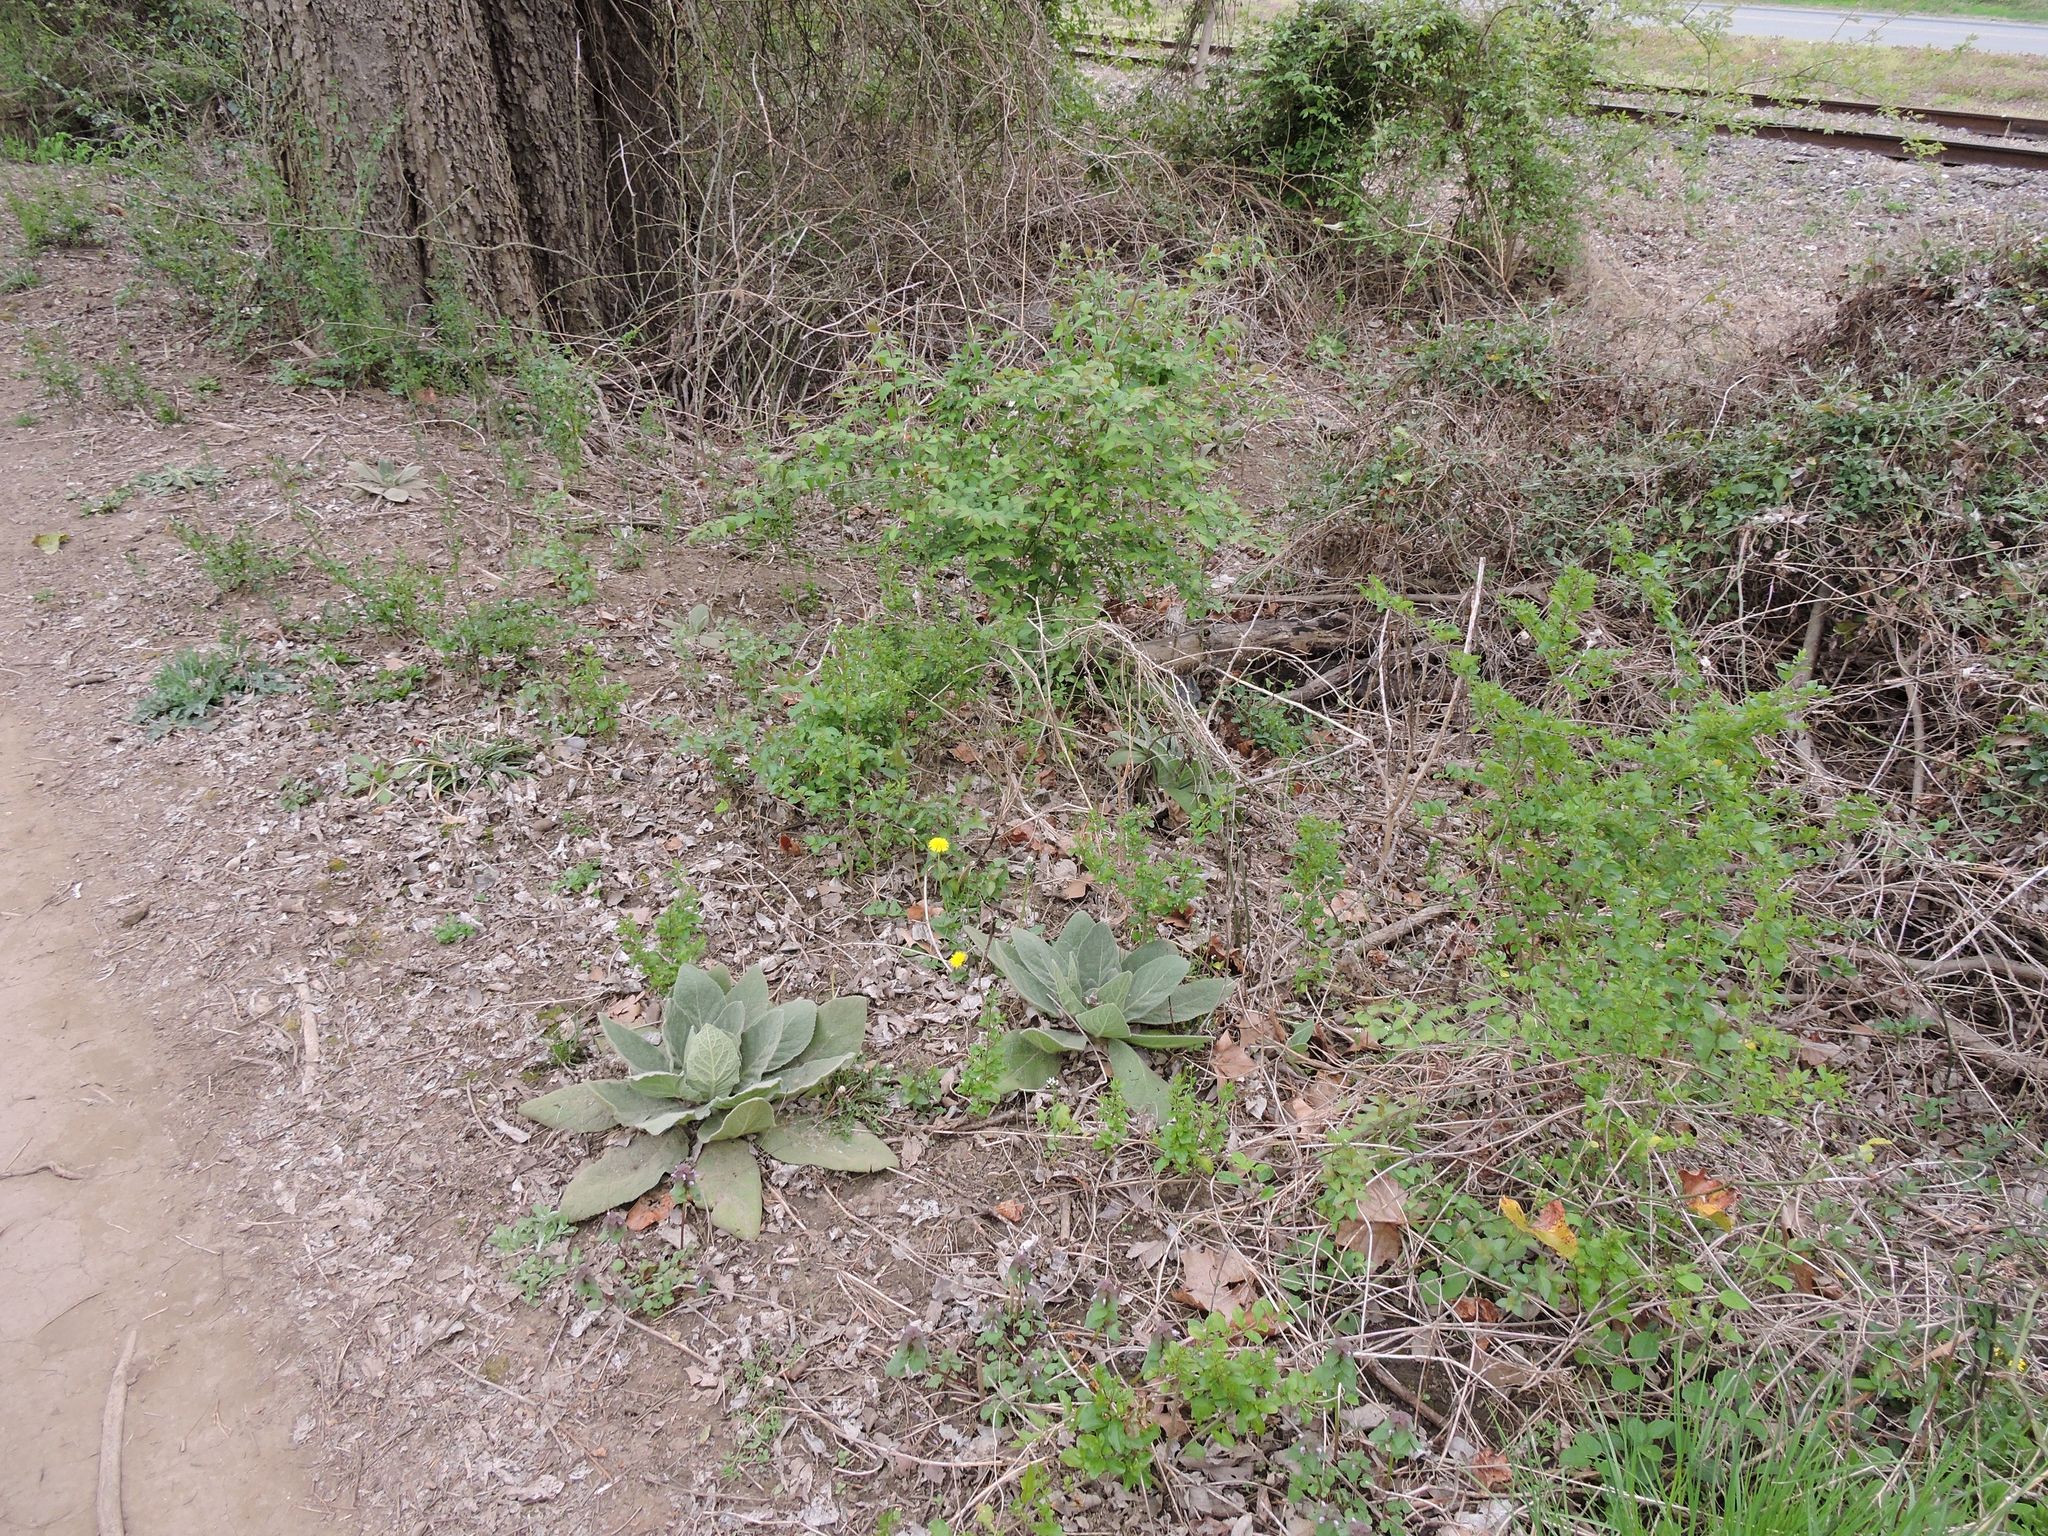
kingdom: Plantae
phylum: Tracheophyta
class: Magnoliopsida
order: Lamiales
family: Scrophulariaceae
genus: Verbascum
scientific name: Verbascum thapsus
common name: Common mullein
